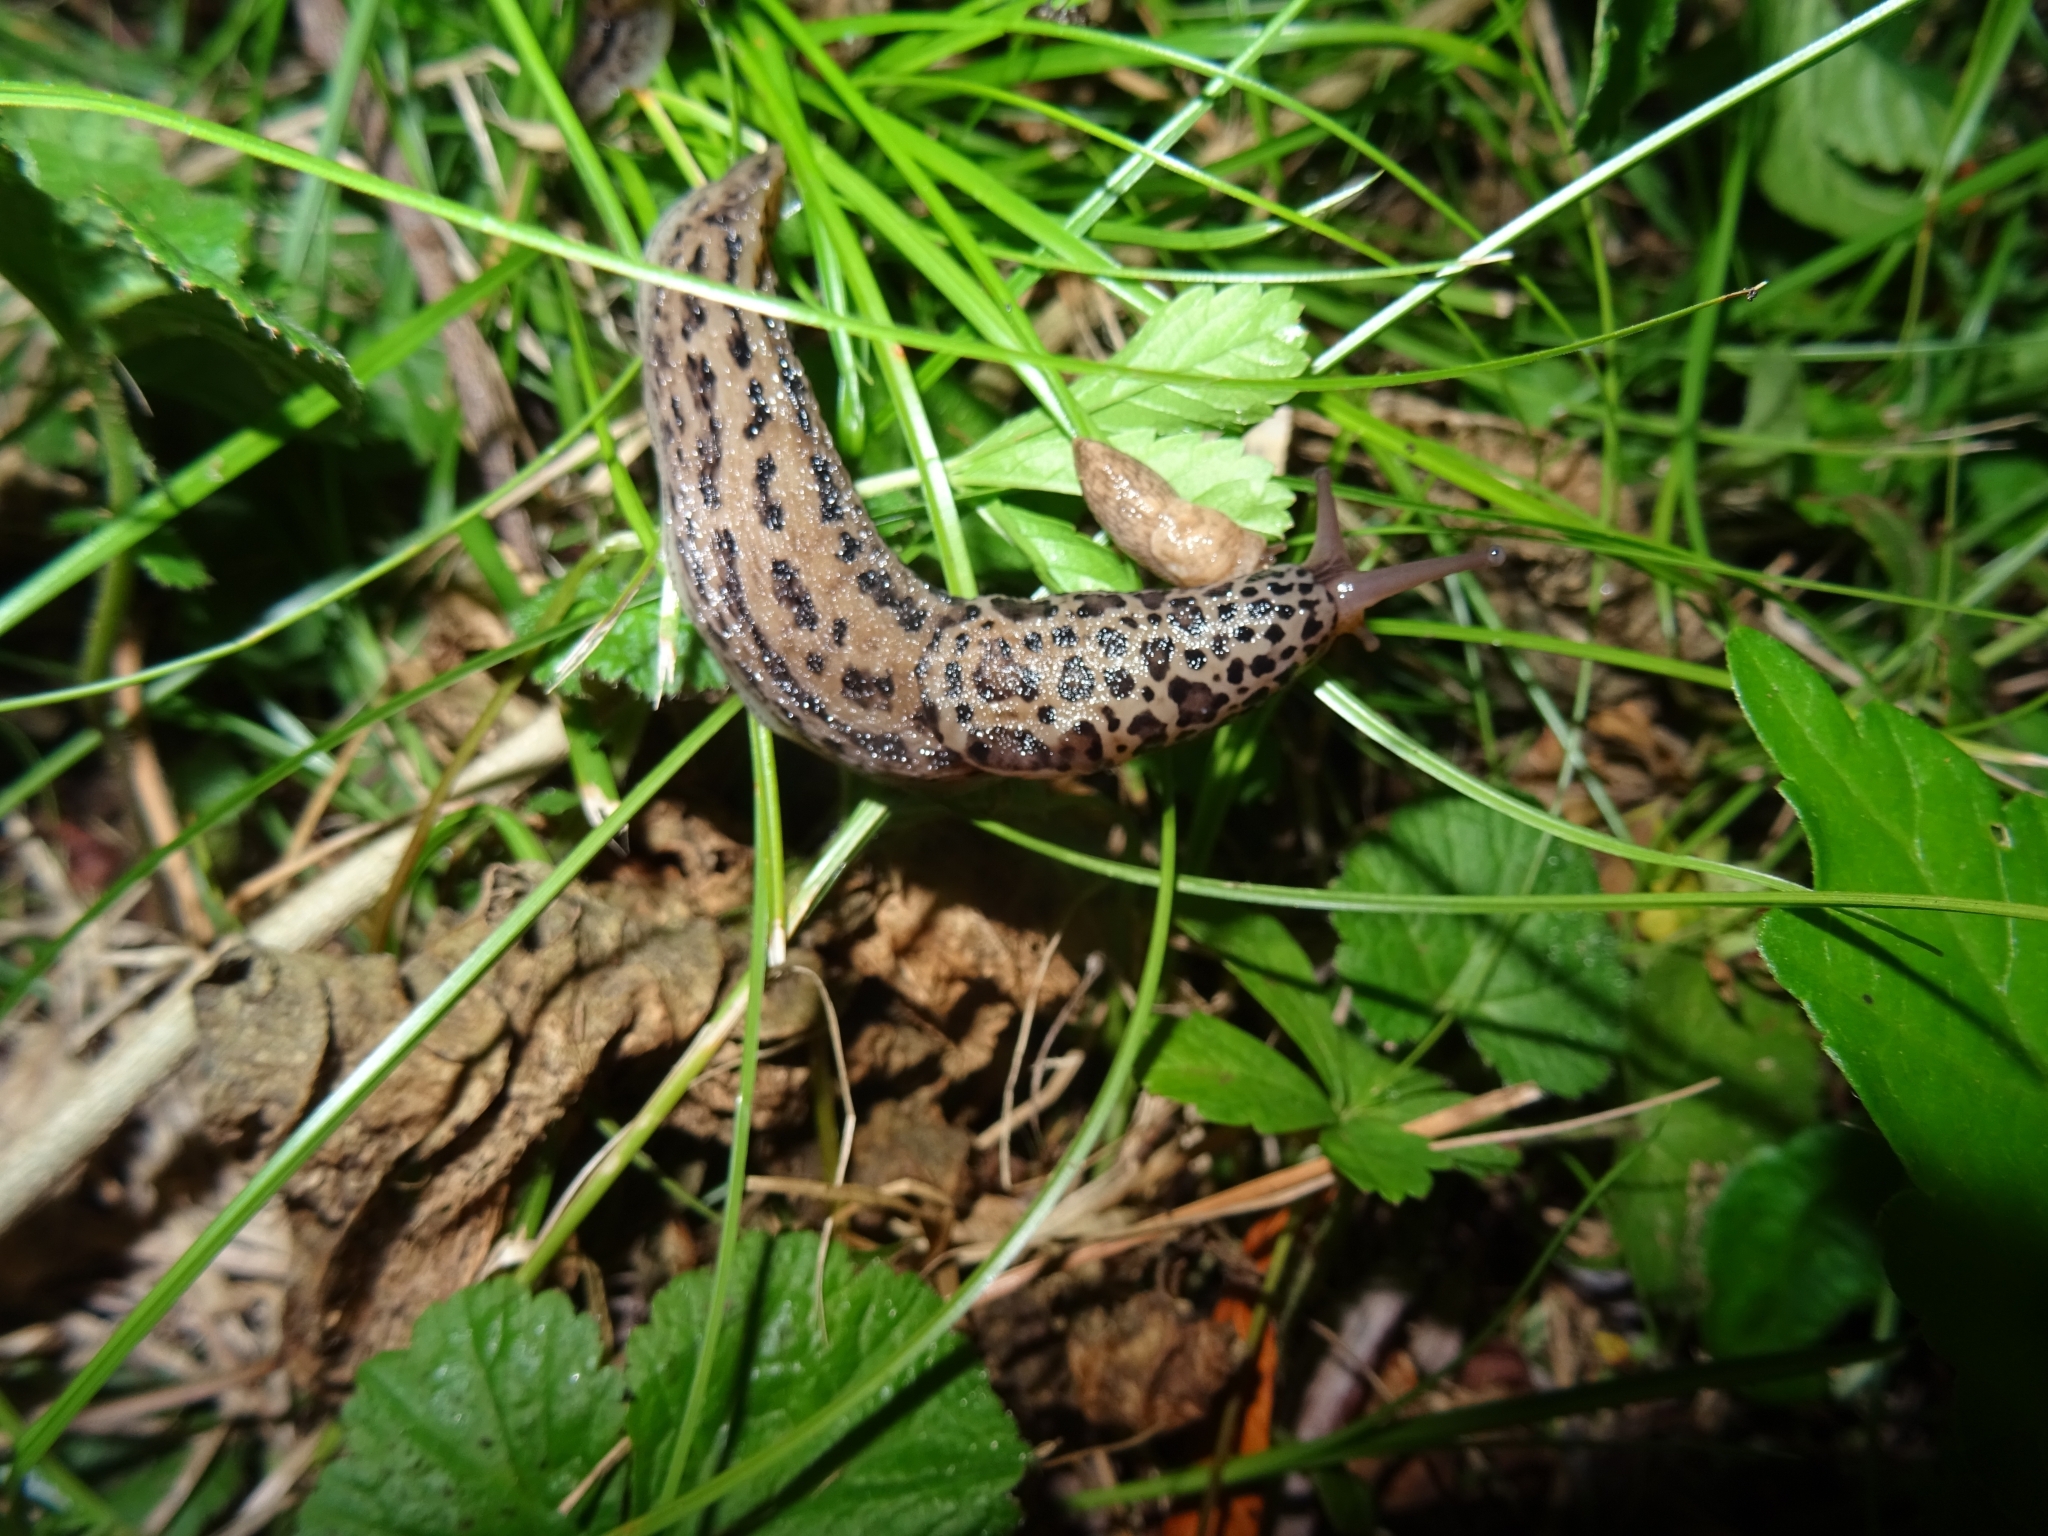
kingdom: Animalia
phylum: Mollusca
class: Gastropoda
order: Stylommatophora
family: Limacidae
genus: Limax
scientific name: Limax maximus
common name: Great grey slug
